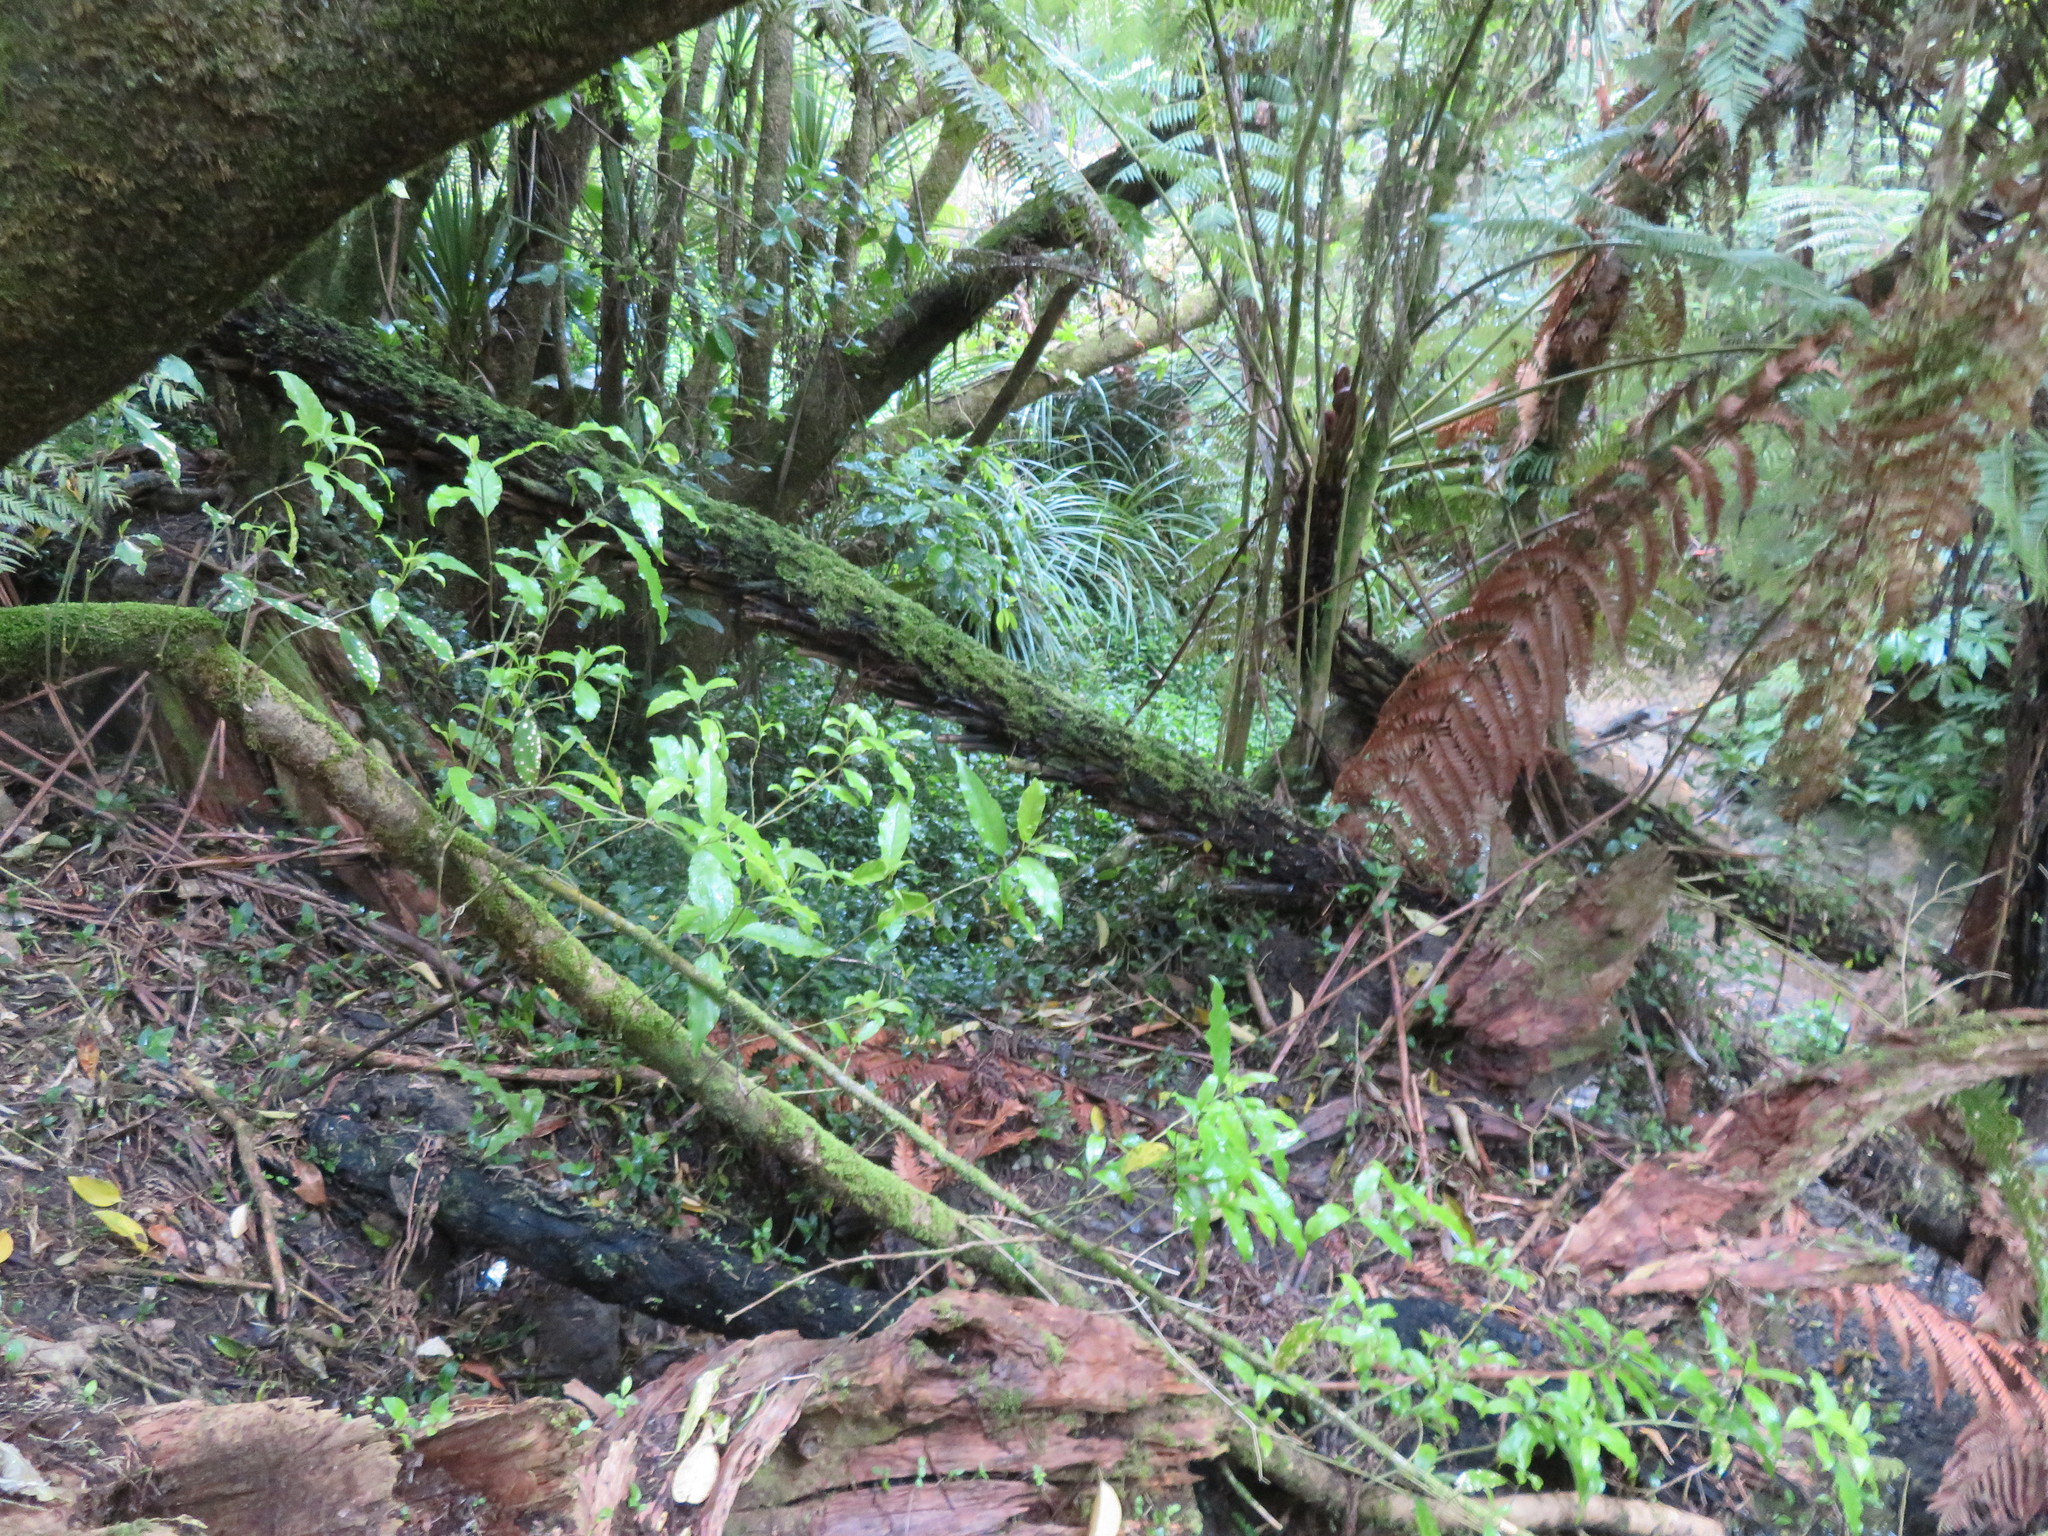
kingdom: Plantae
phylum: Tracheophyta
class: Magnoliopsida
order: Malpighiales
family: Violaceae
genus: Melicytus
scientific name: Melicytus ramiflorus
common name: Mahoe
